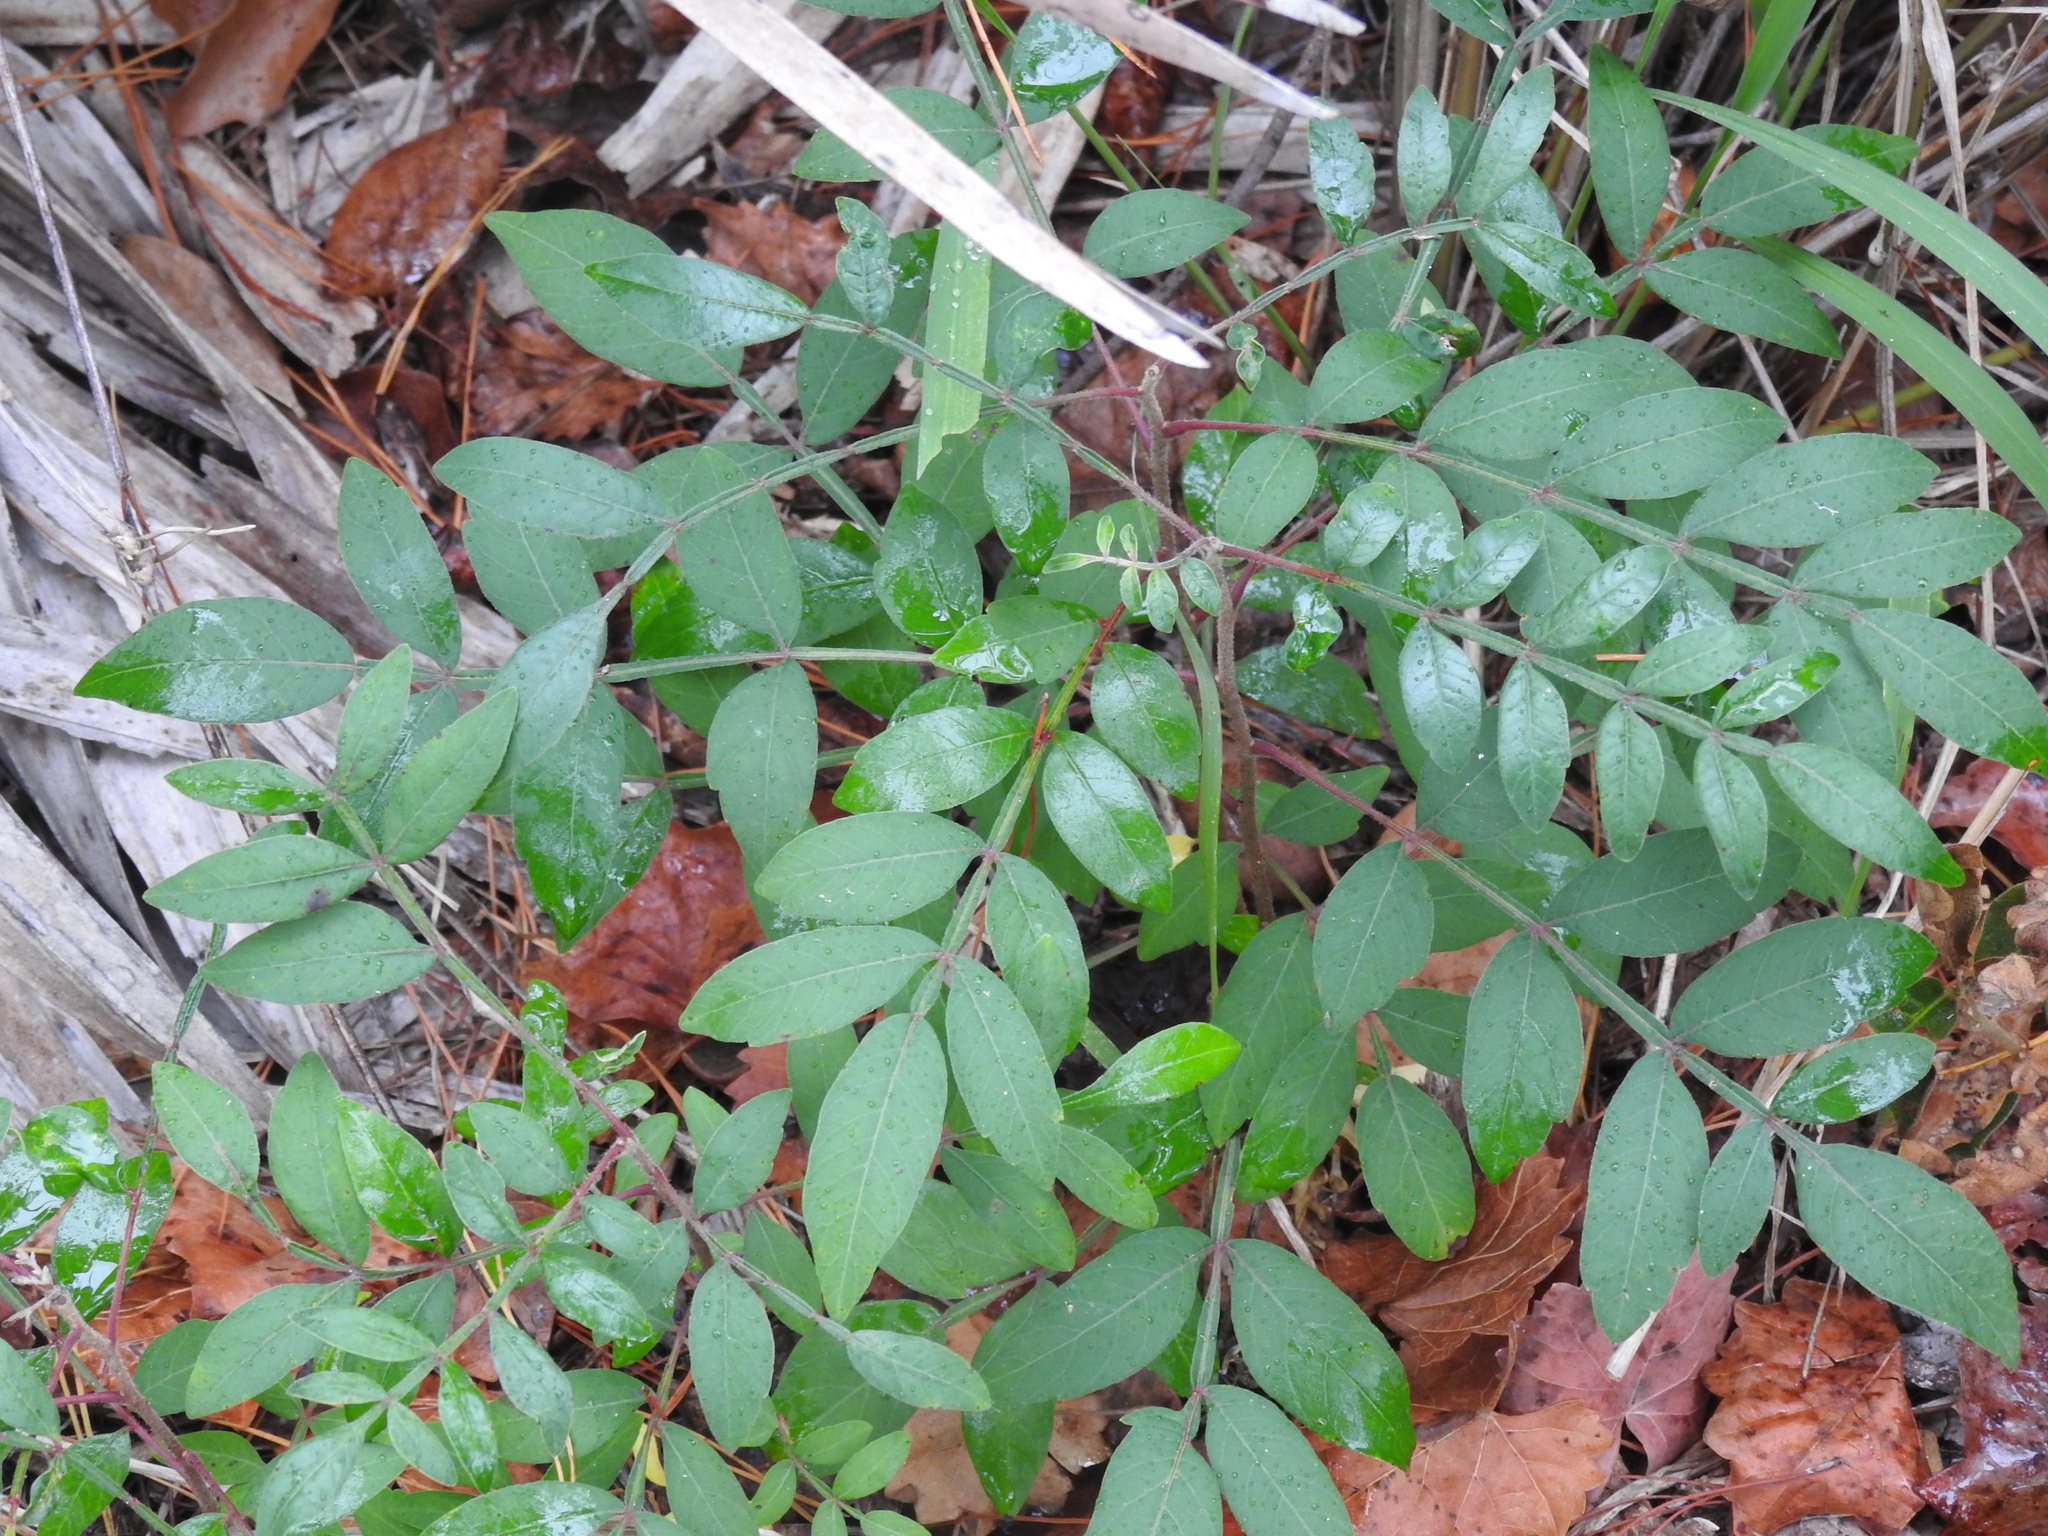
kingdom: Plantae
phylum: Tracheophyta
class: Magnoliopsida
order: Sapindales
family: Anacardiaceae
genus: Rhus
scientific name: Rhus copallina
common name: Shining sumac
